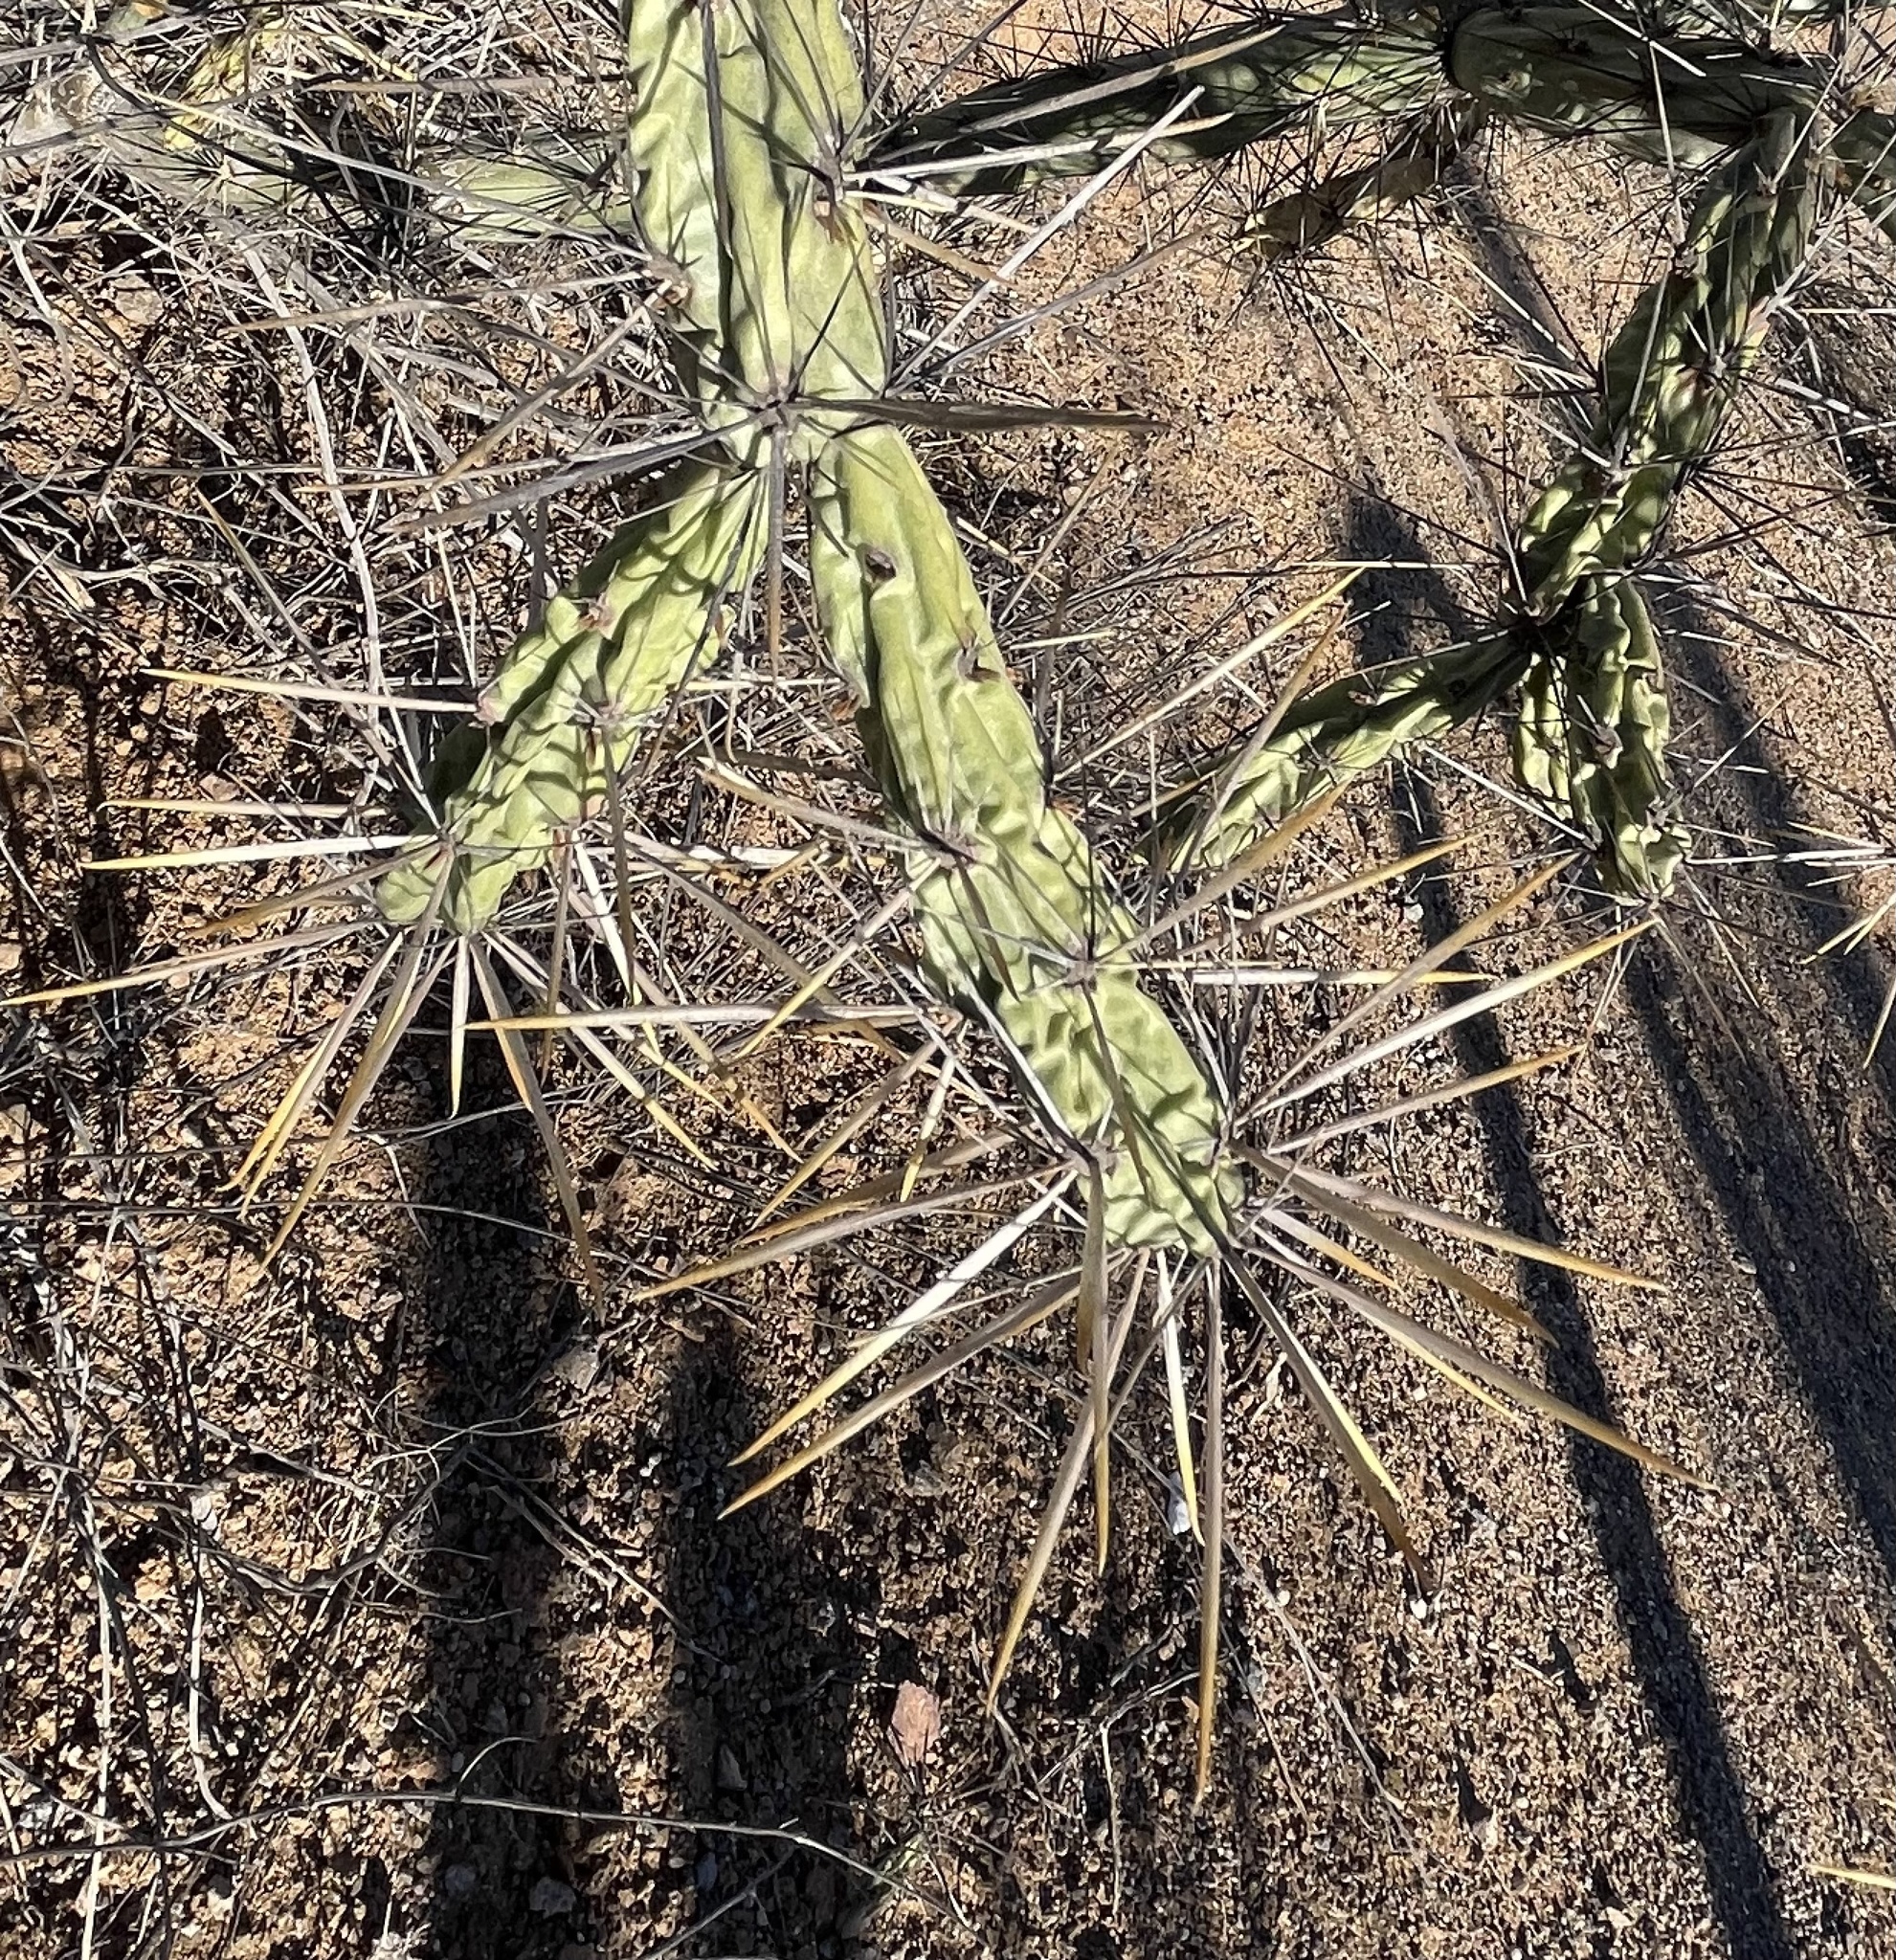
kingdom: Plantae
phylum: Tracheophyta
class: Magnoliopsida
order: Caryophyllales
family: Cactaceae
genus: Cylindropuntia
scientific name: Cylindropuntia molesta
